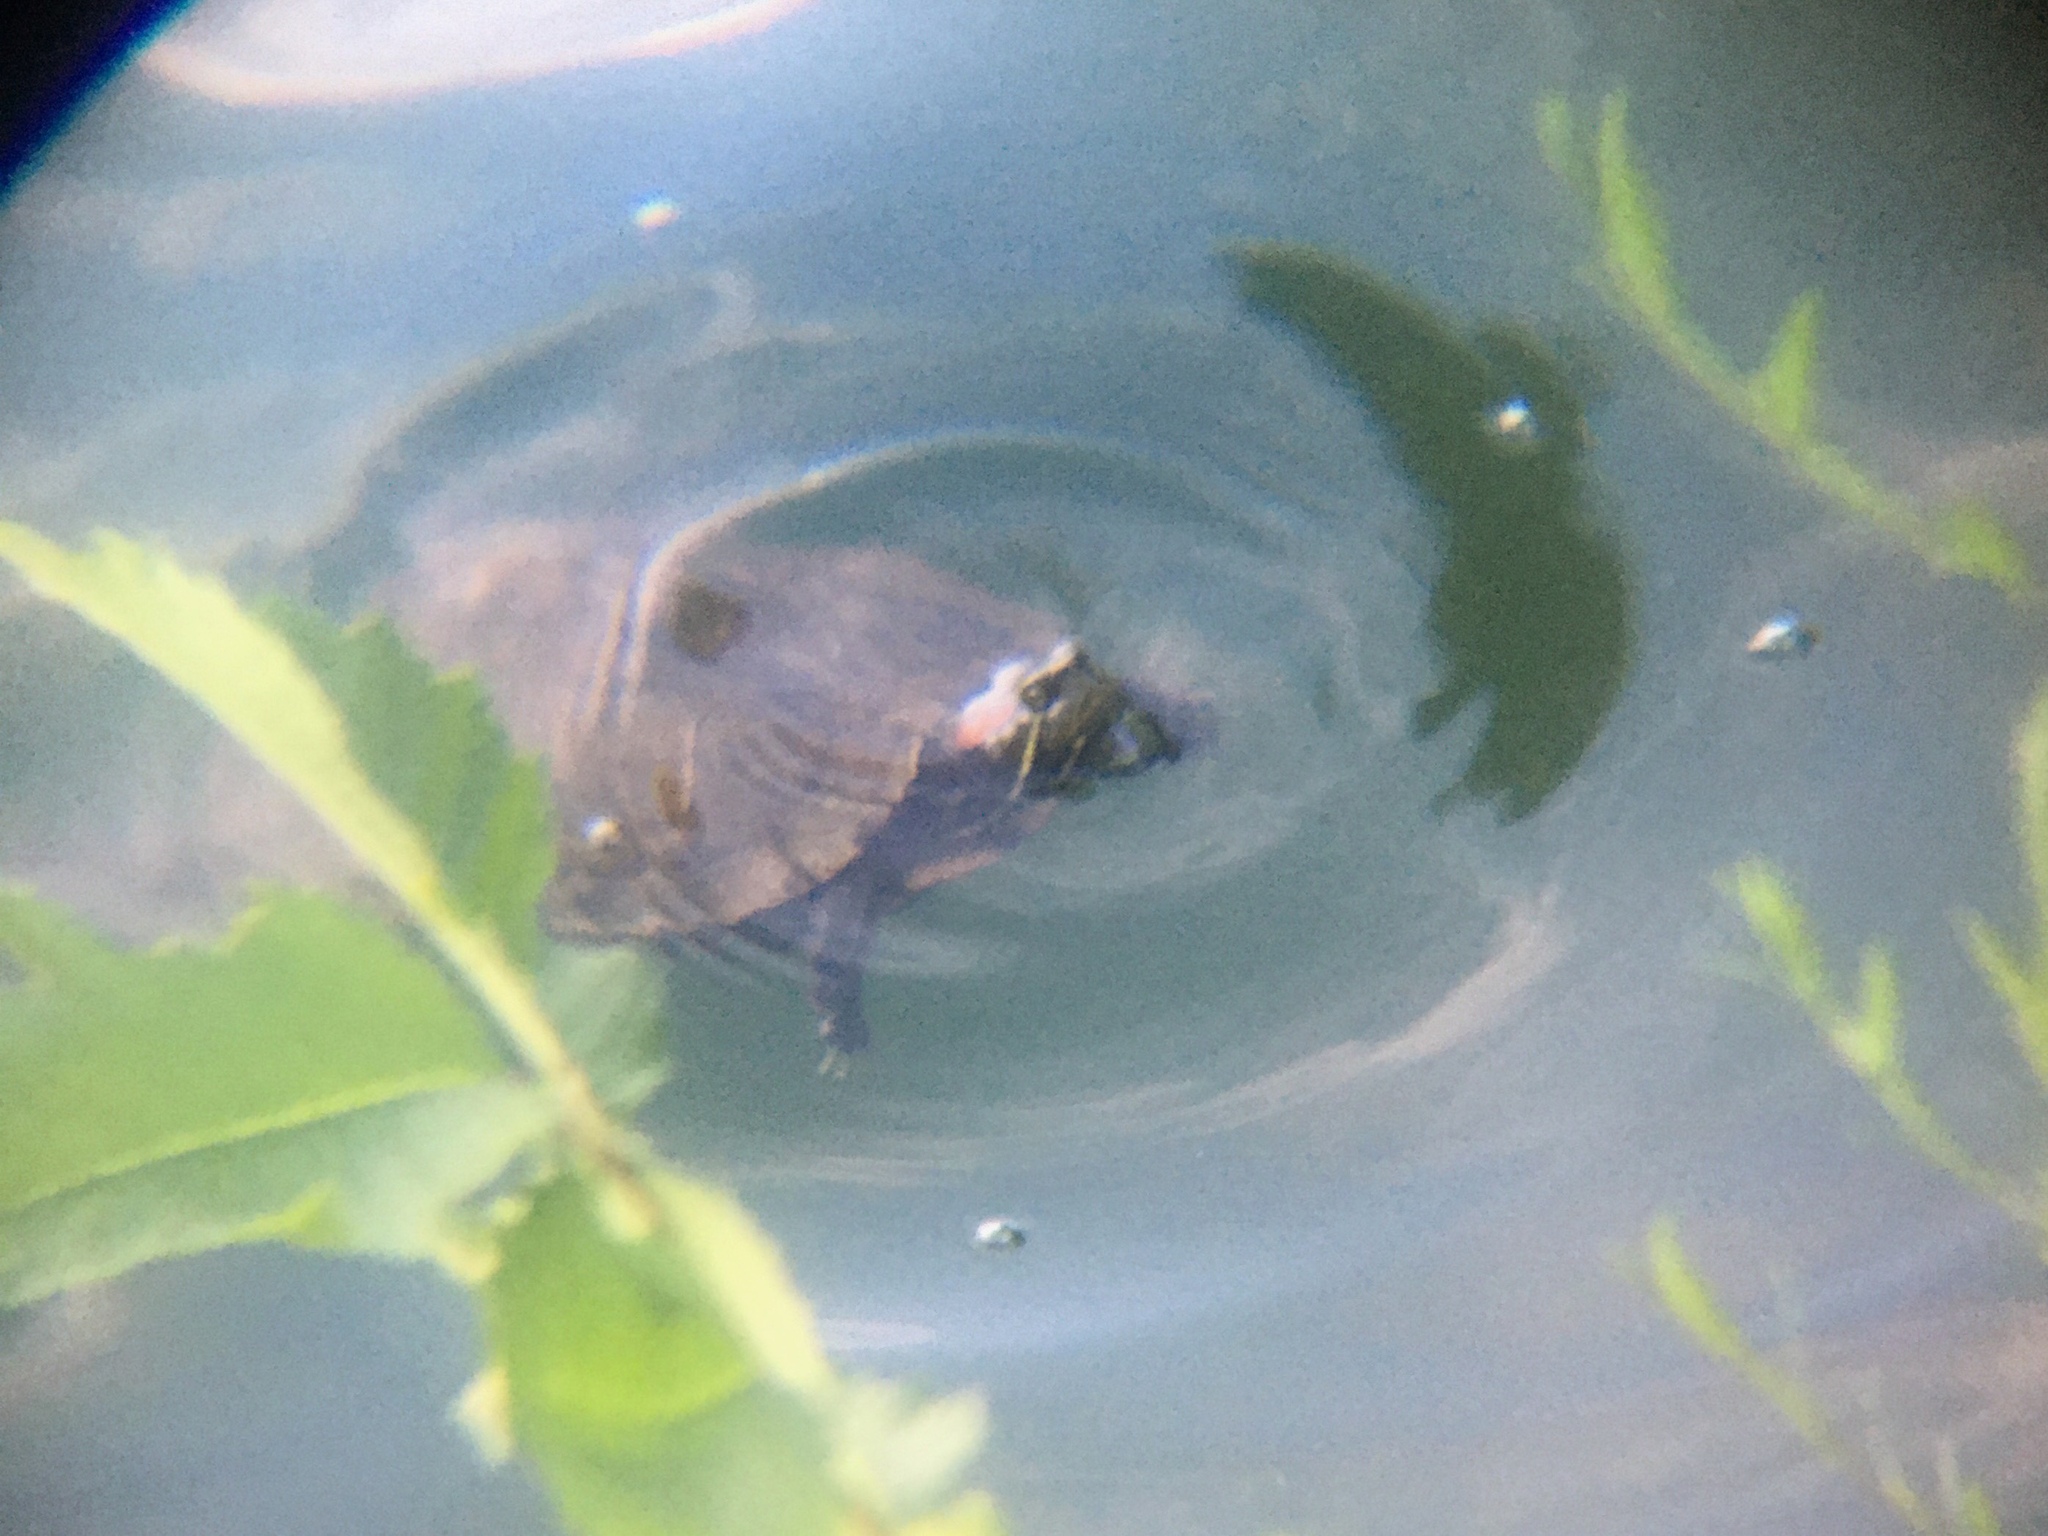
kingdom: Animalia
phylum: Chordata
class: Testudines
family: Emydidae
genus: Trachemys
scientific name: Trachemys scripta
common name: Slider
